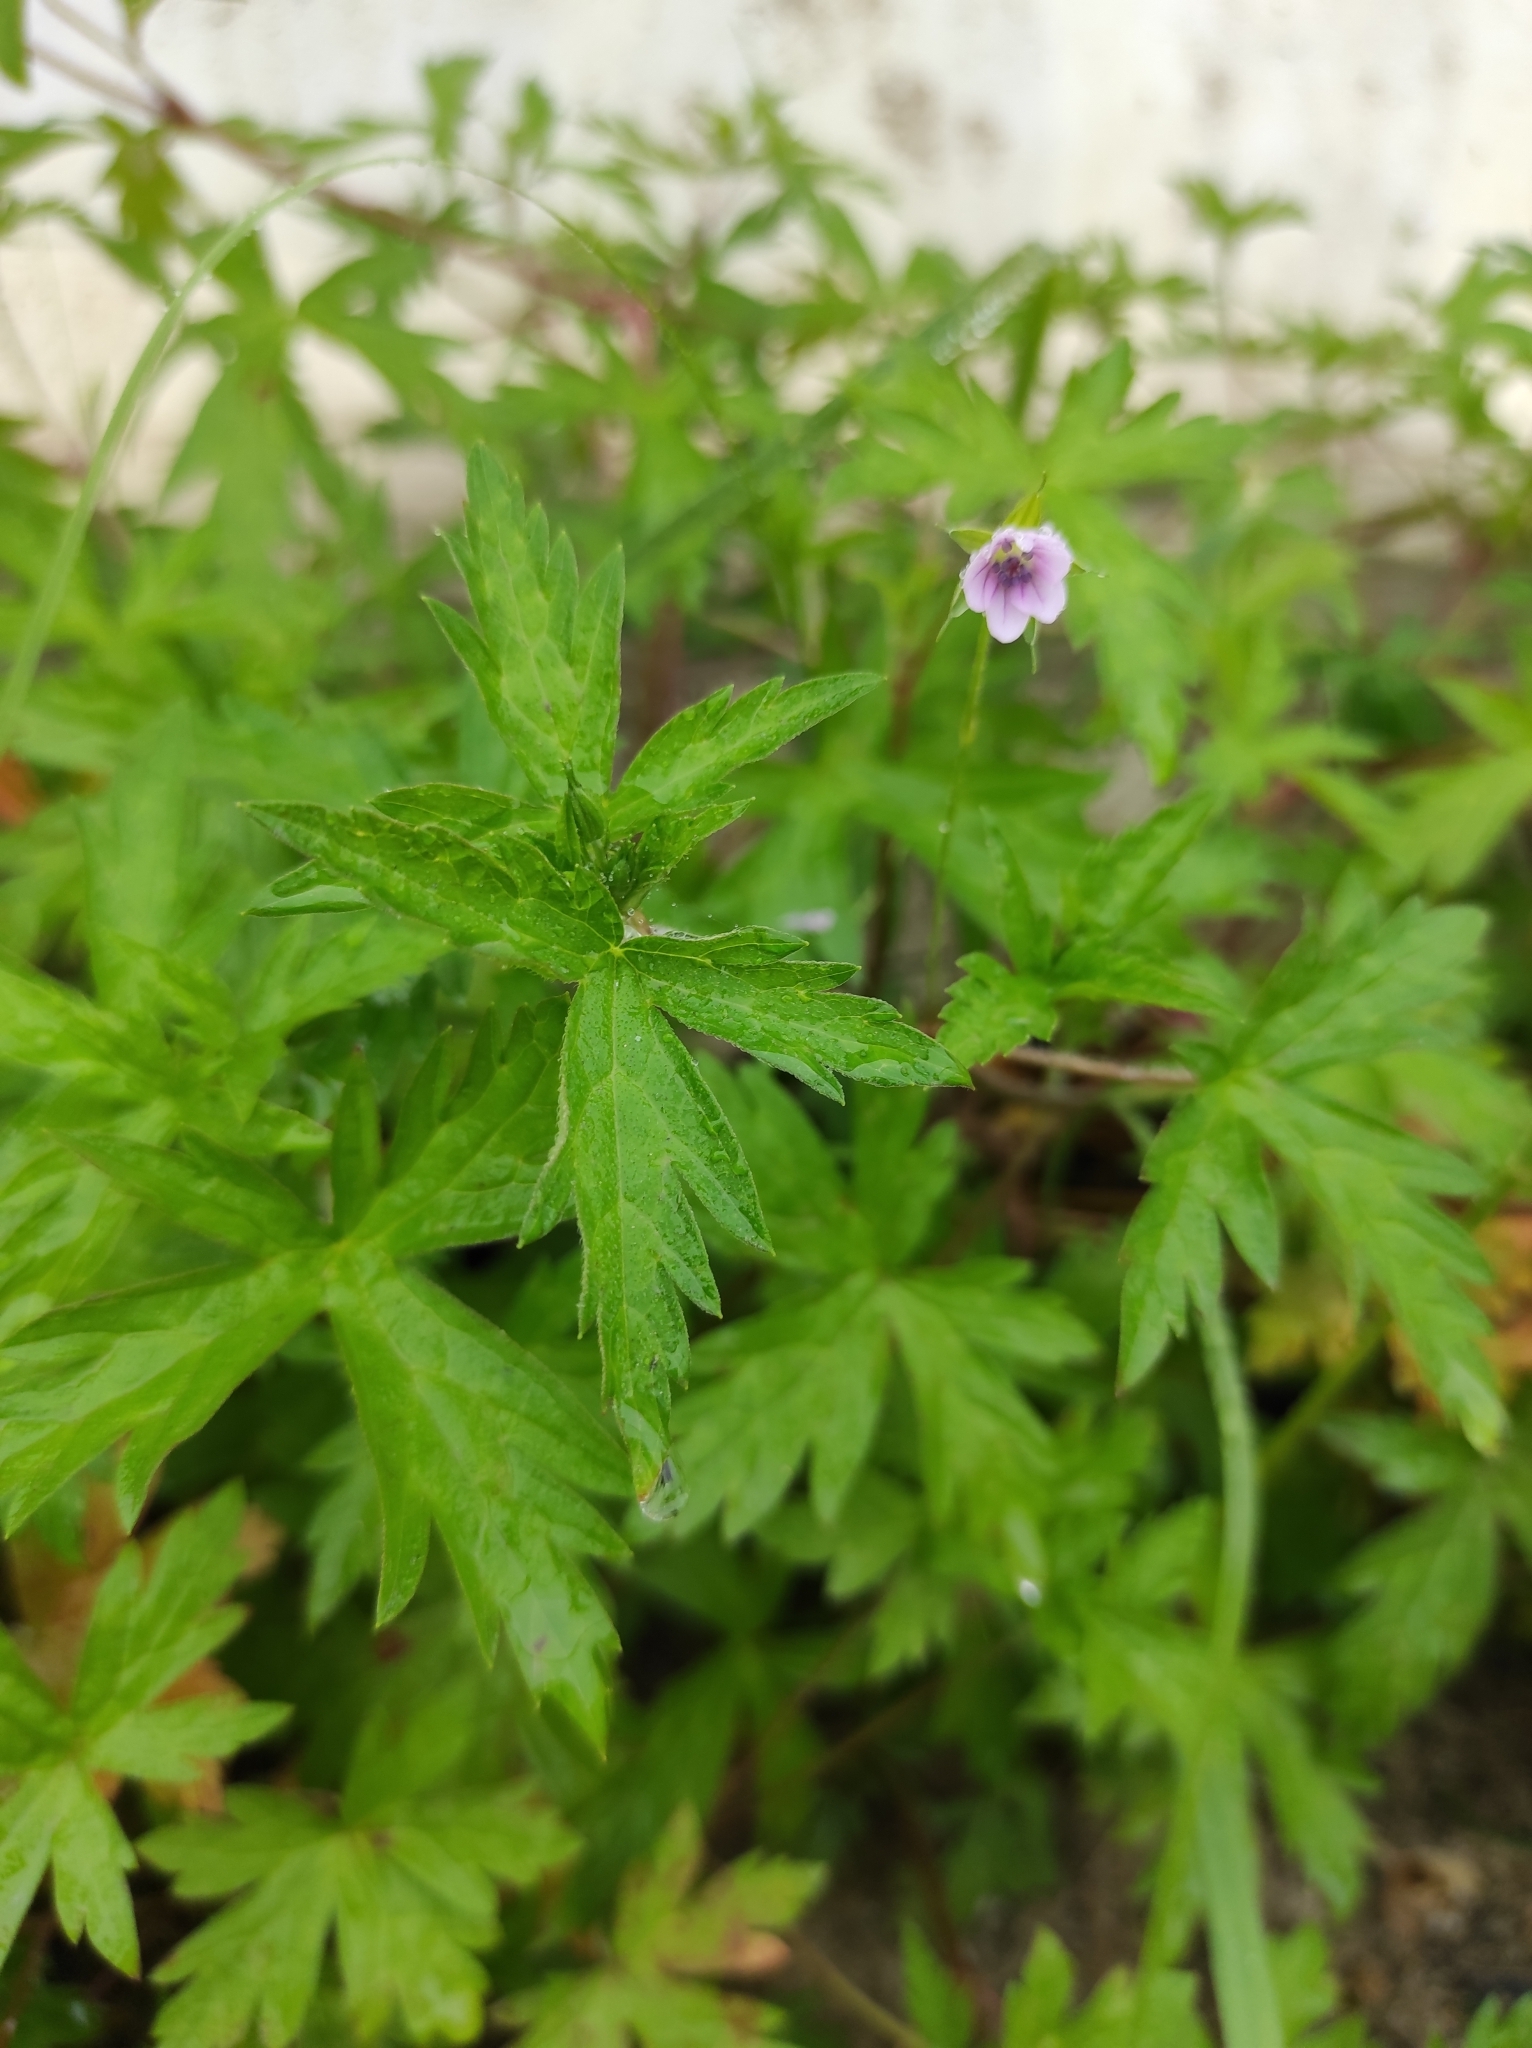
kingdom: Plantae
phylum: Tracheophyta
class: Magnoliopsida
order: Geraniales
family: Geraniaceae
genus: Geranium
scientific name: Geranium sibiricum
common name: Siberian crane's-bill
